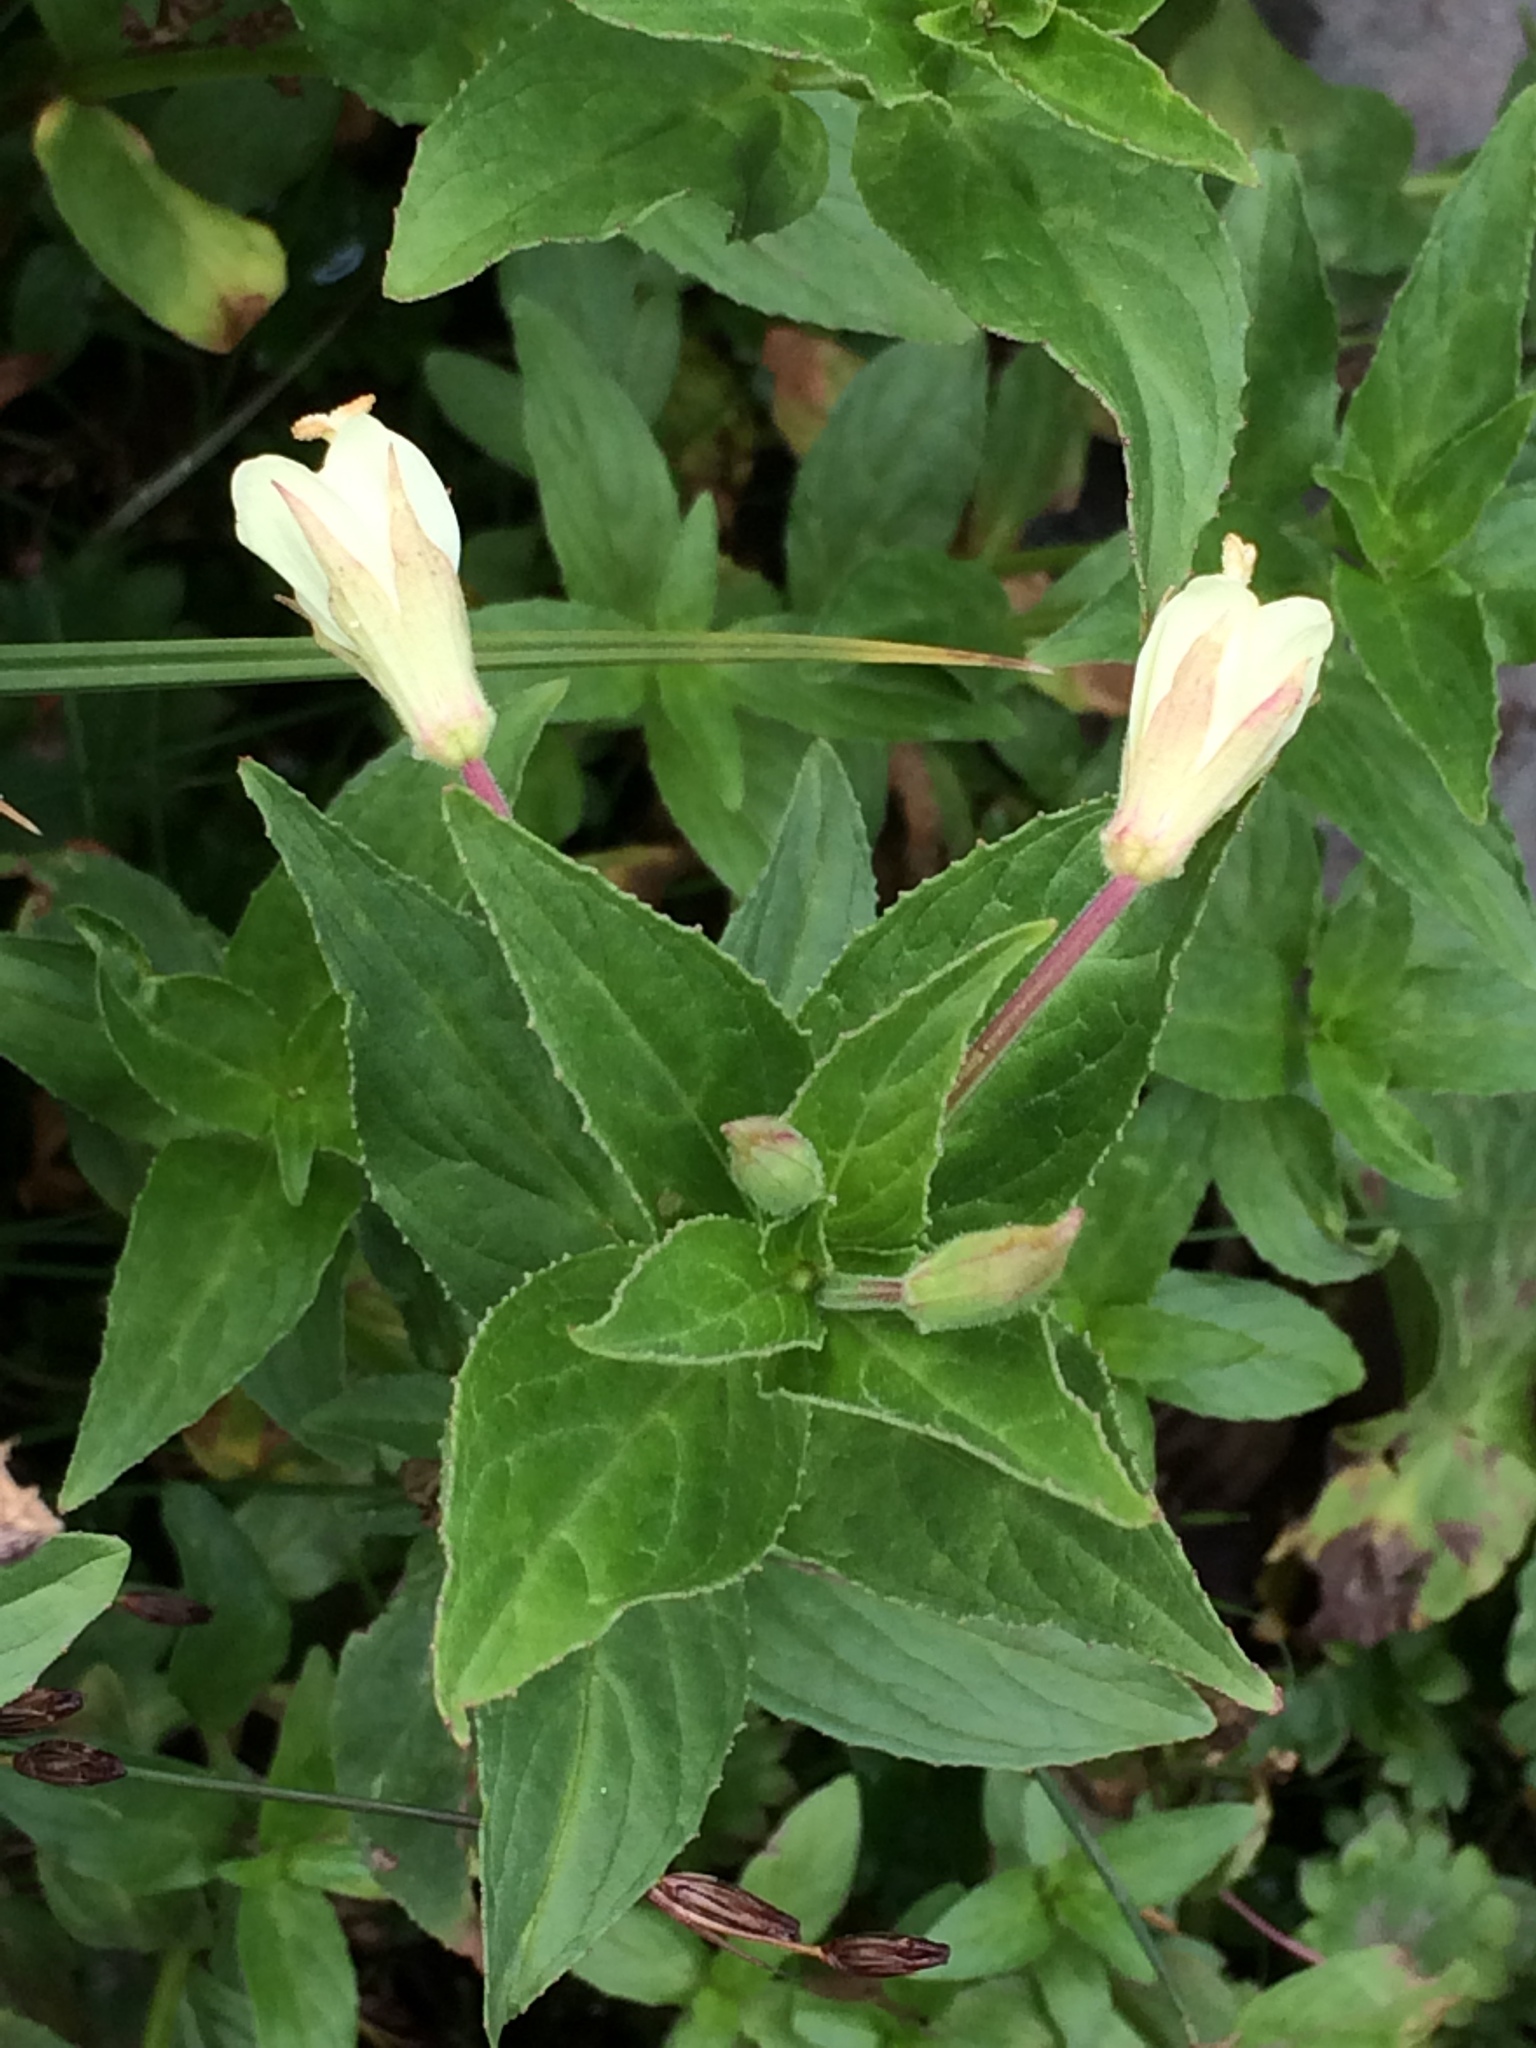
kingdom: Plantae
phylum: Tracheophyta
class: Magnoliopsida
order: Myrtales
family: Onagraceae
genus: Epilobium
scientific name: Epilobium luteum
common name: Yellow willowherb
